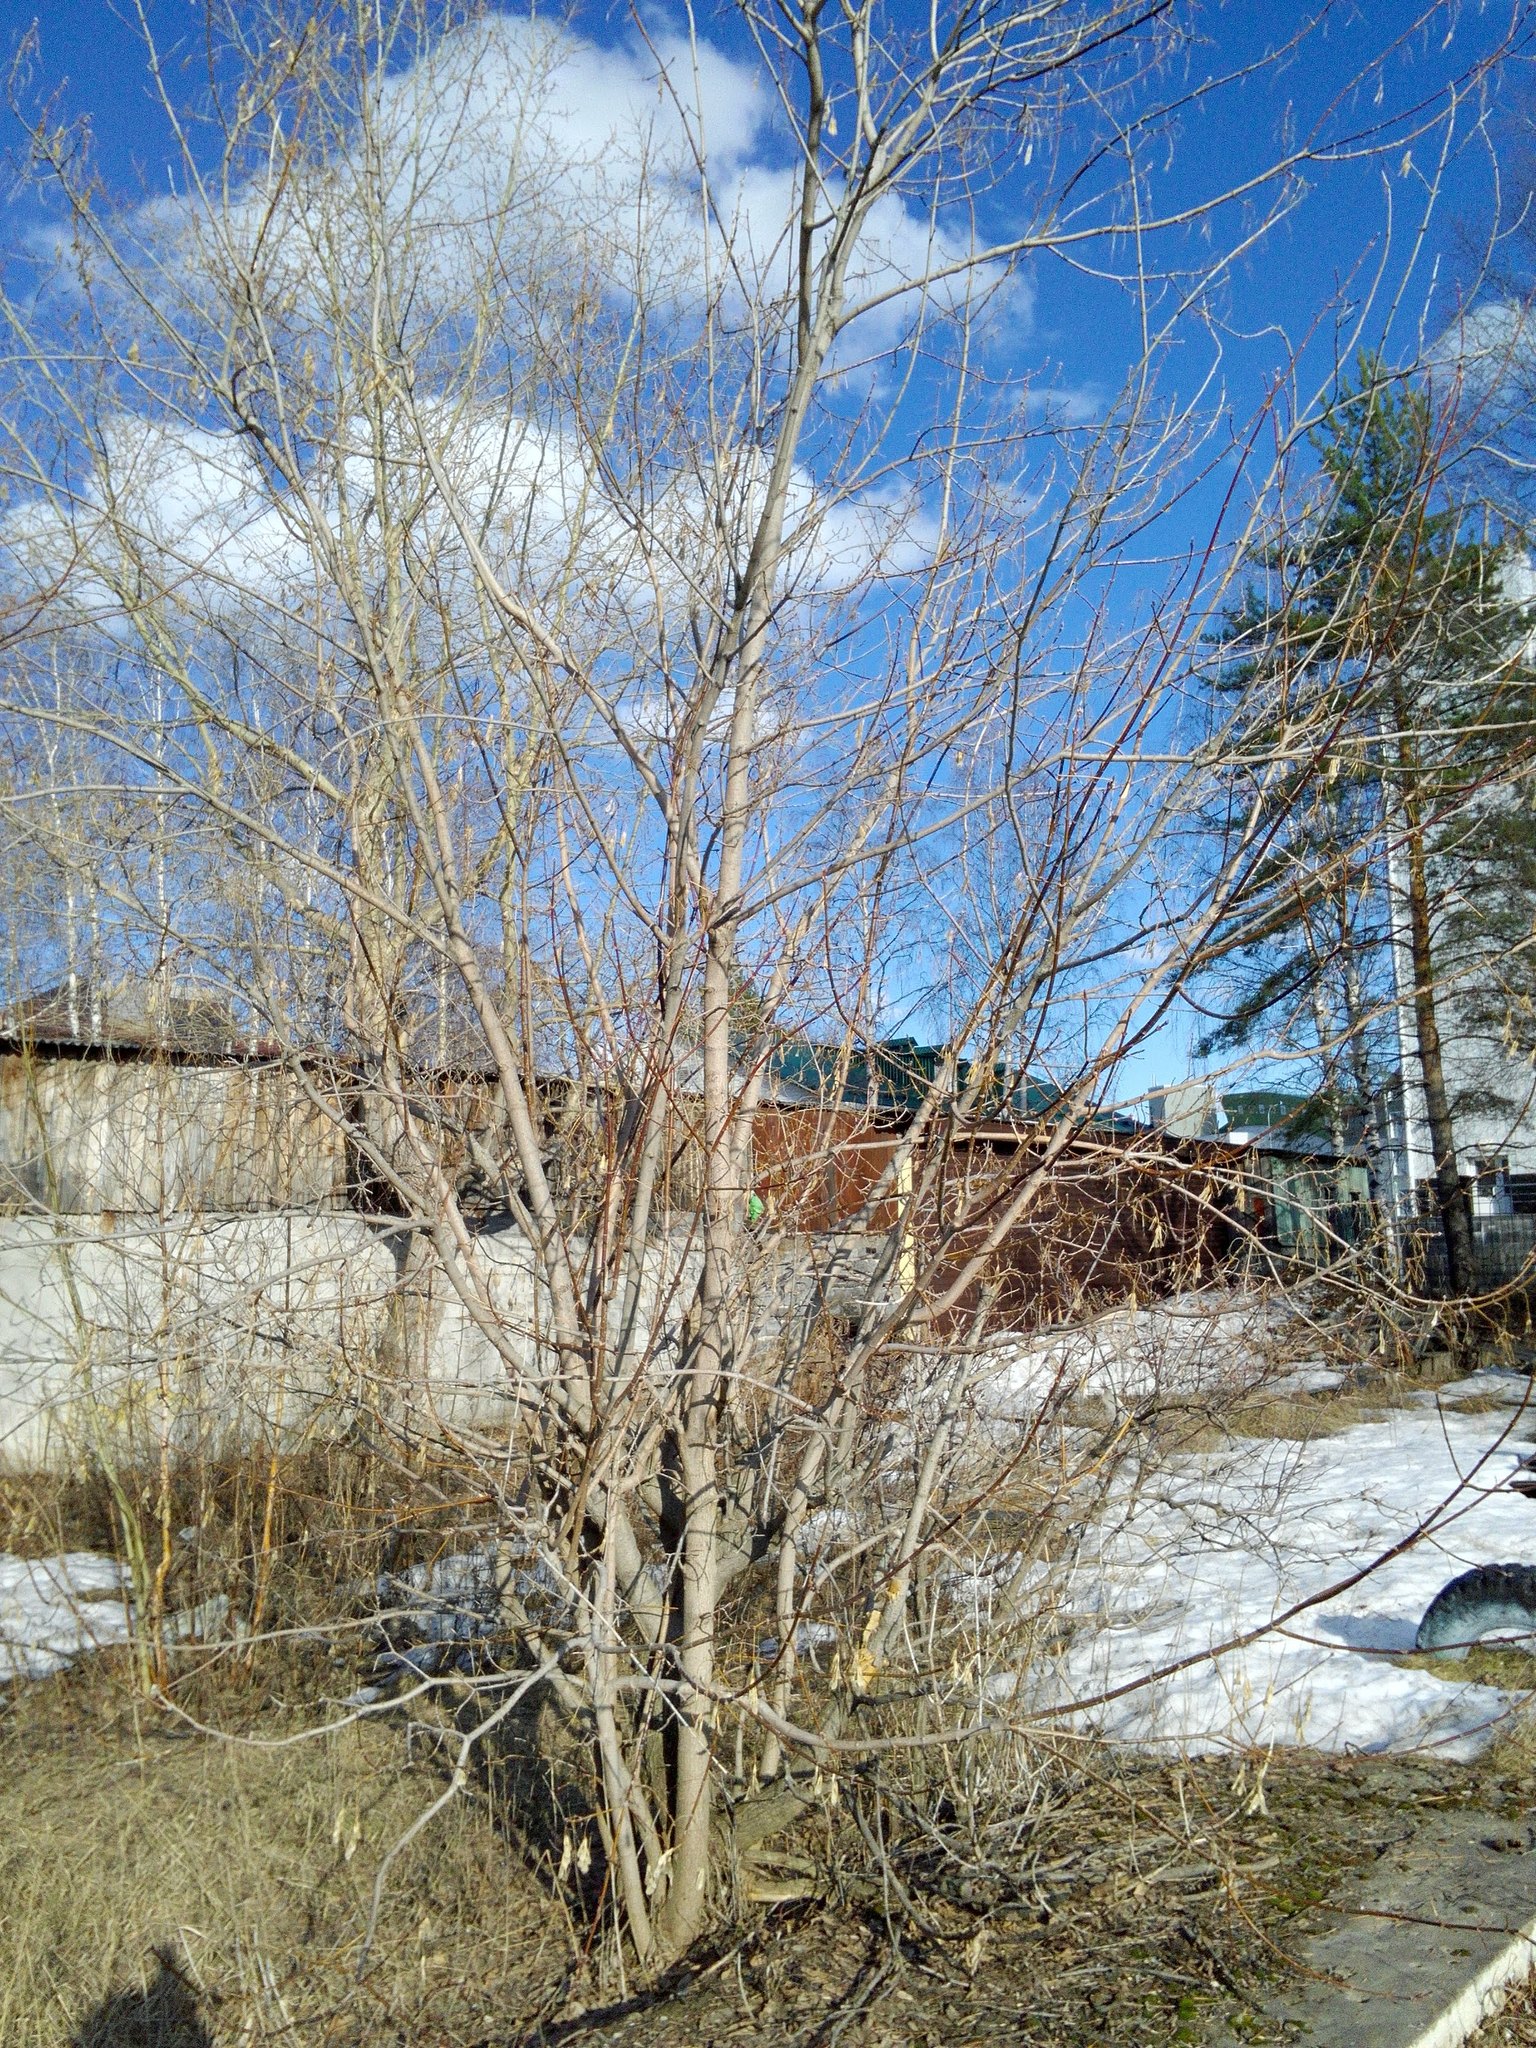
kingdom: Plantae
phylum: Tracheophyta
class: Magnoliopsida
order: Sapindales
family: Sapindaceae
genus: Acer
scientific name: Acer negundo
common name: Ashleaf maple
